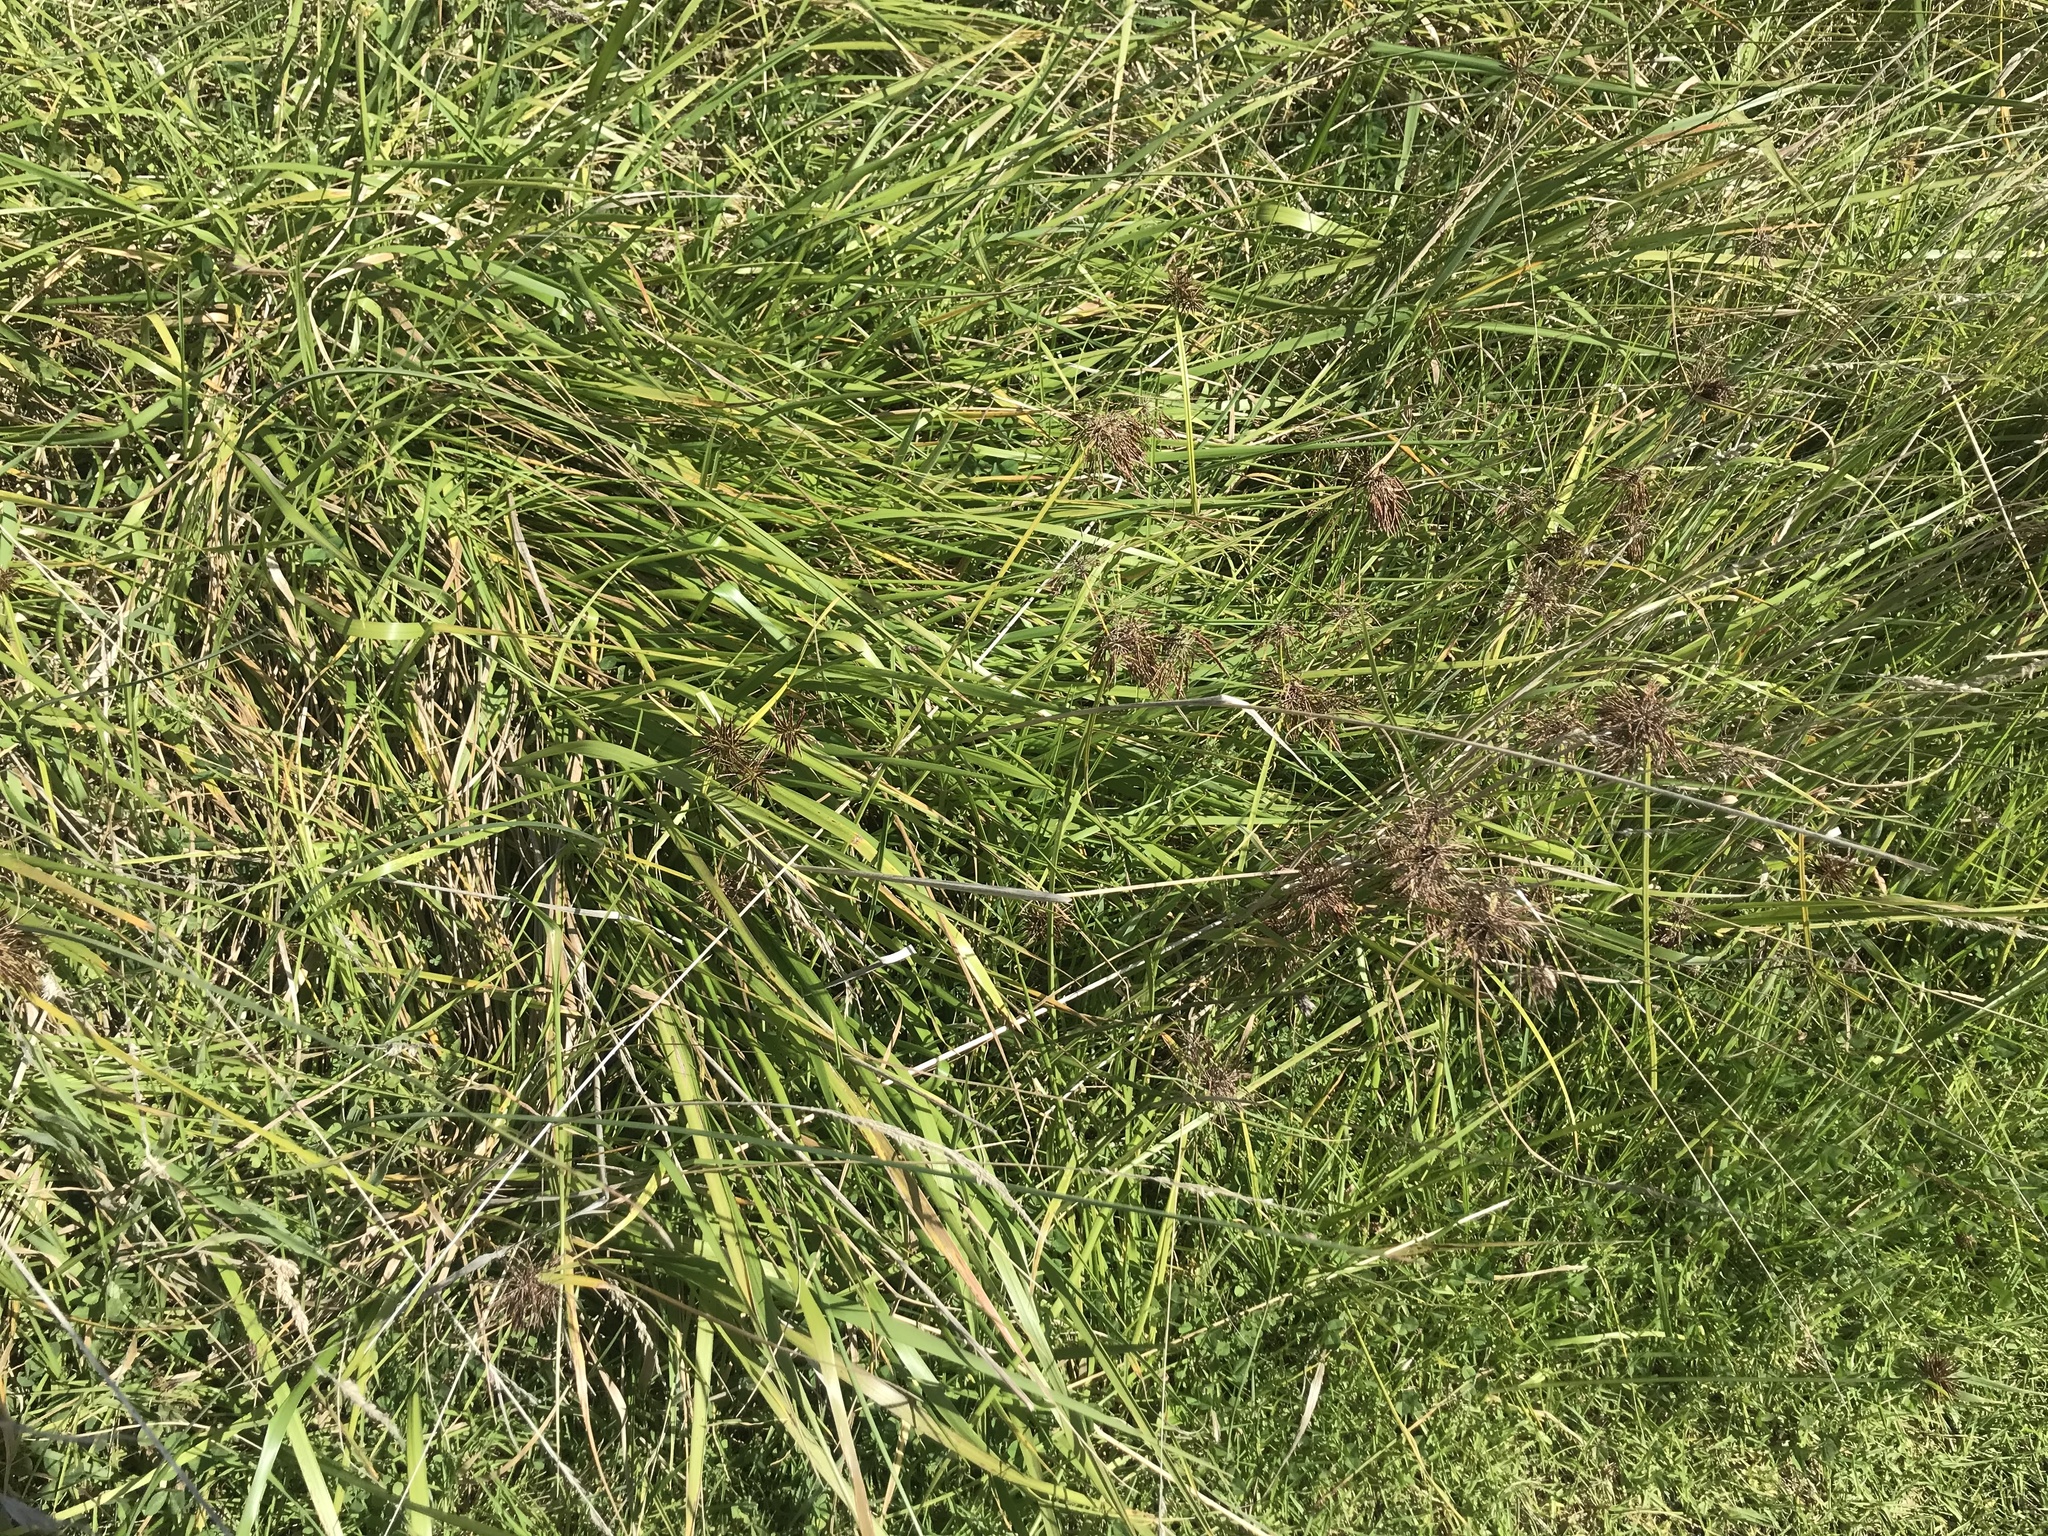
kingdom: Plantae
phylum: Tracheophyta
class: Liliopsida
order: Poales
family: Cyperaceae
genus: Cyperus
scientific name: Cyperus congestus
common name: Dense flat sedge
